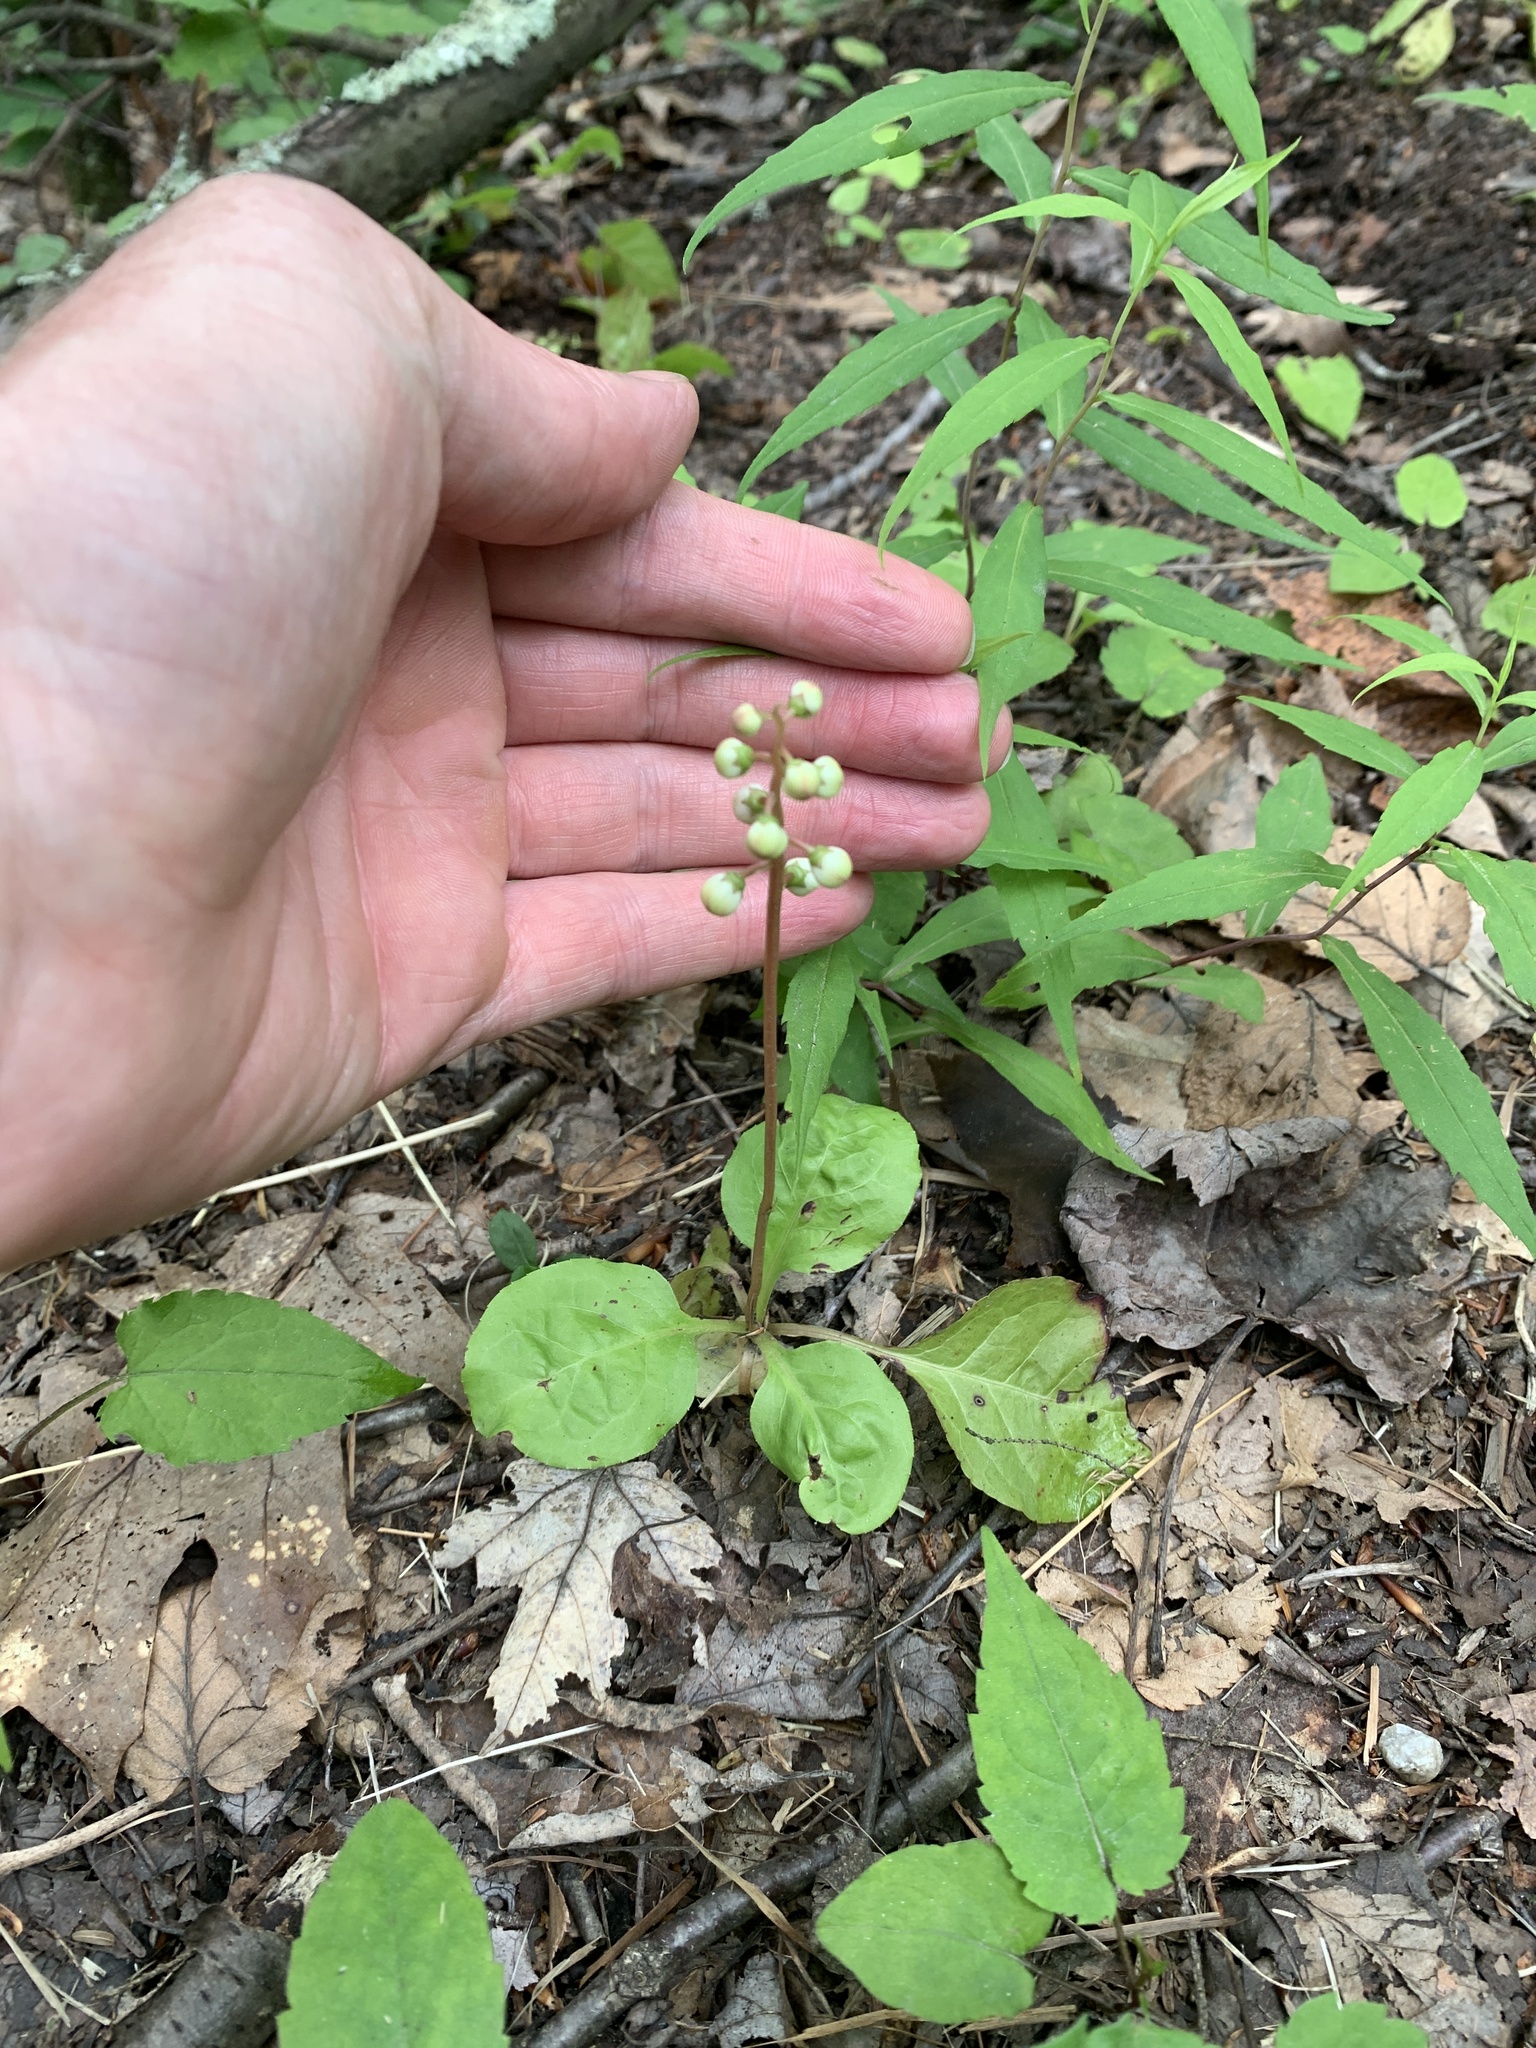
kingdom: Plantae
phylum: Tracheophyta
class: Magnoliopsida
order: Ericales
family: Ericaceae
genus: Pyrola
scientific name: Pyrola elliptica
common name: Shinleaf
